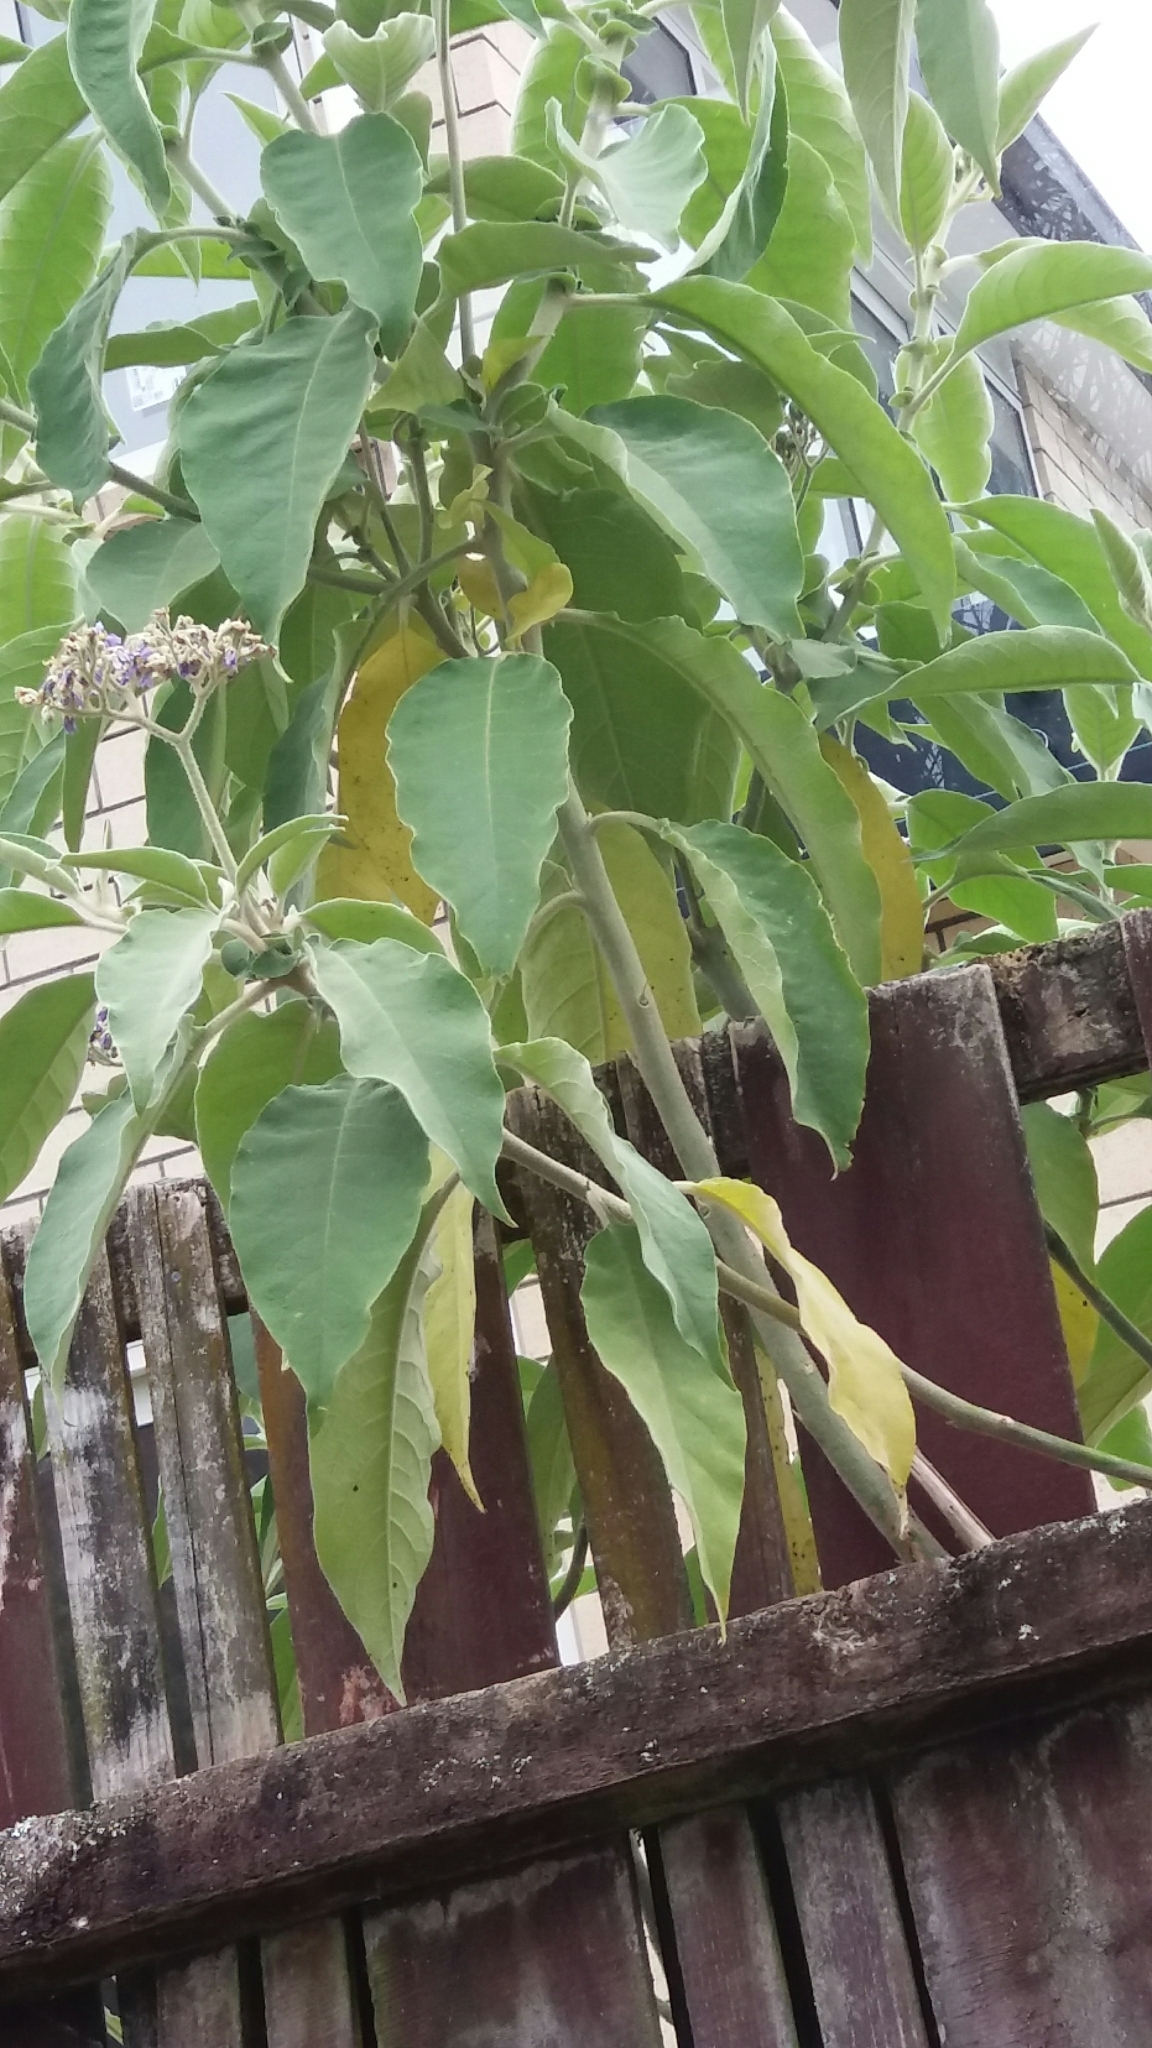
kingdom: Plantae
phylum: Tracheophyta
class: Magnoliopsida
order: Solanales
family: Solanaceae
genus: Solanum
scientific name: Solanum mauritianum
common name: Earleaf nightshade
